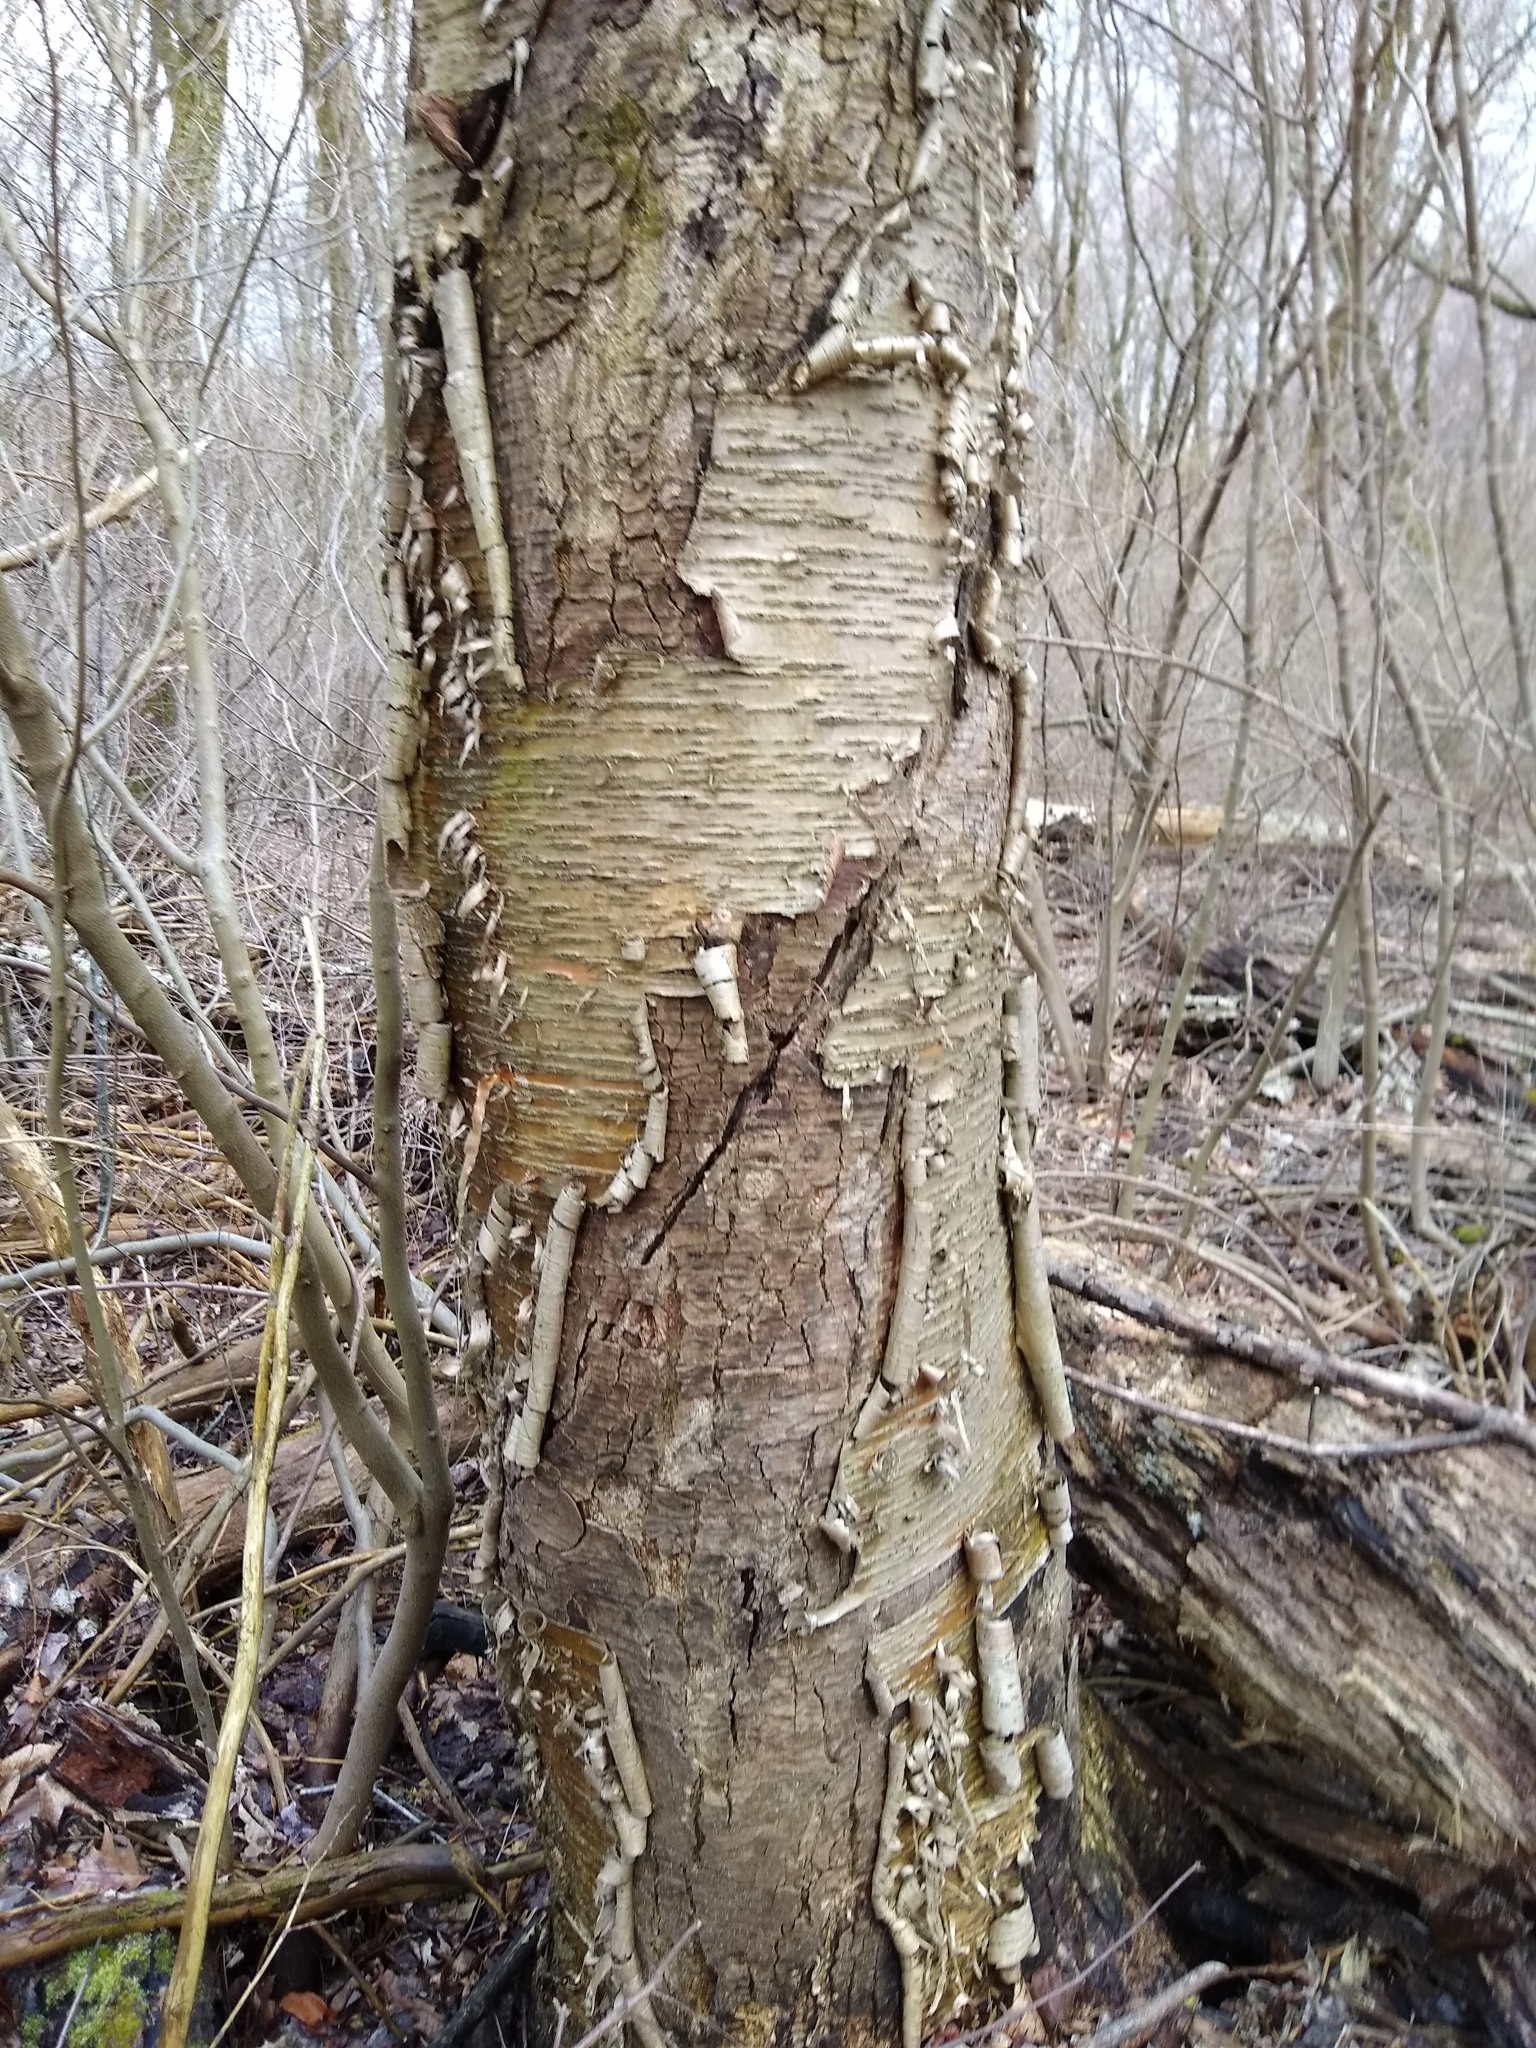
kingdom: Plantae
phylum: Tracheophyta
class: Magnoliopsida
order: Fagales
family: Betulaceae
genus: Betula
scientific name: Betula alleghaniensis
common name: Yellow birch
